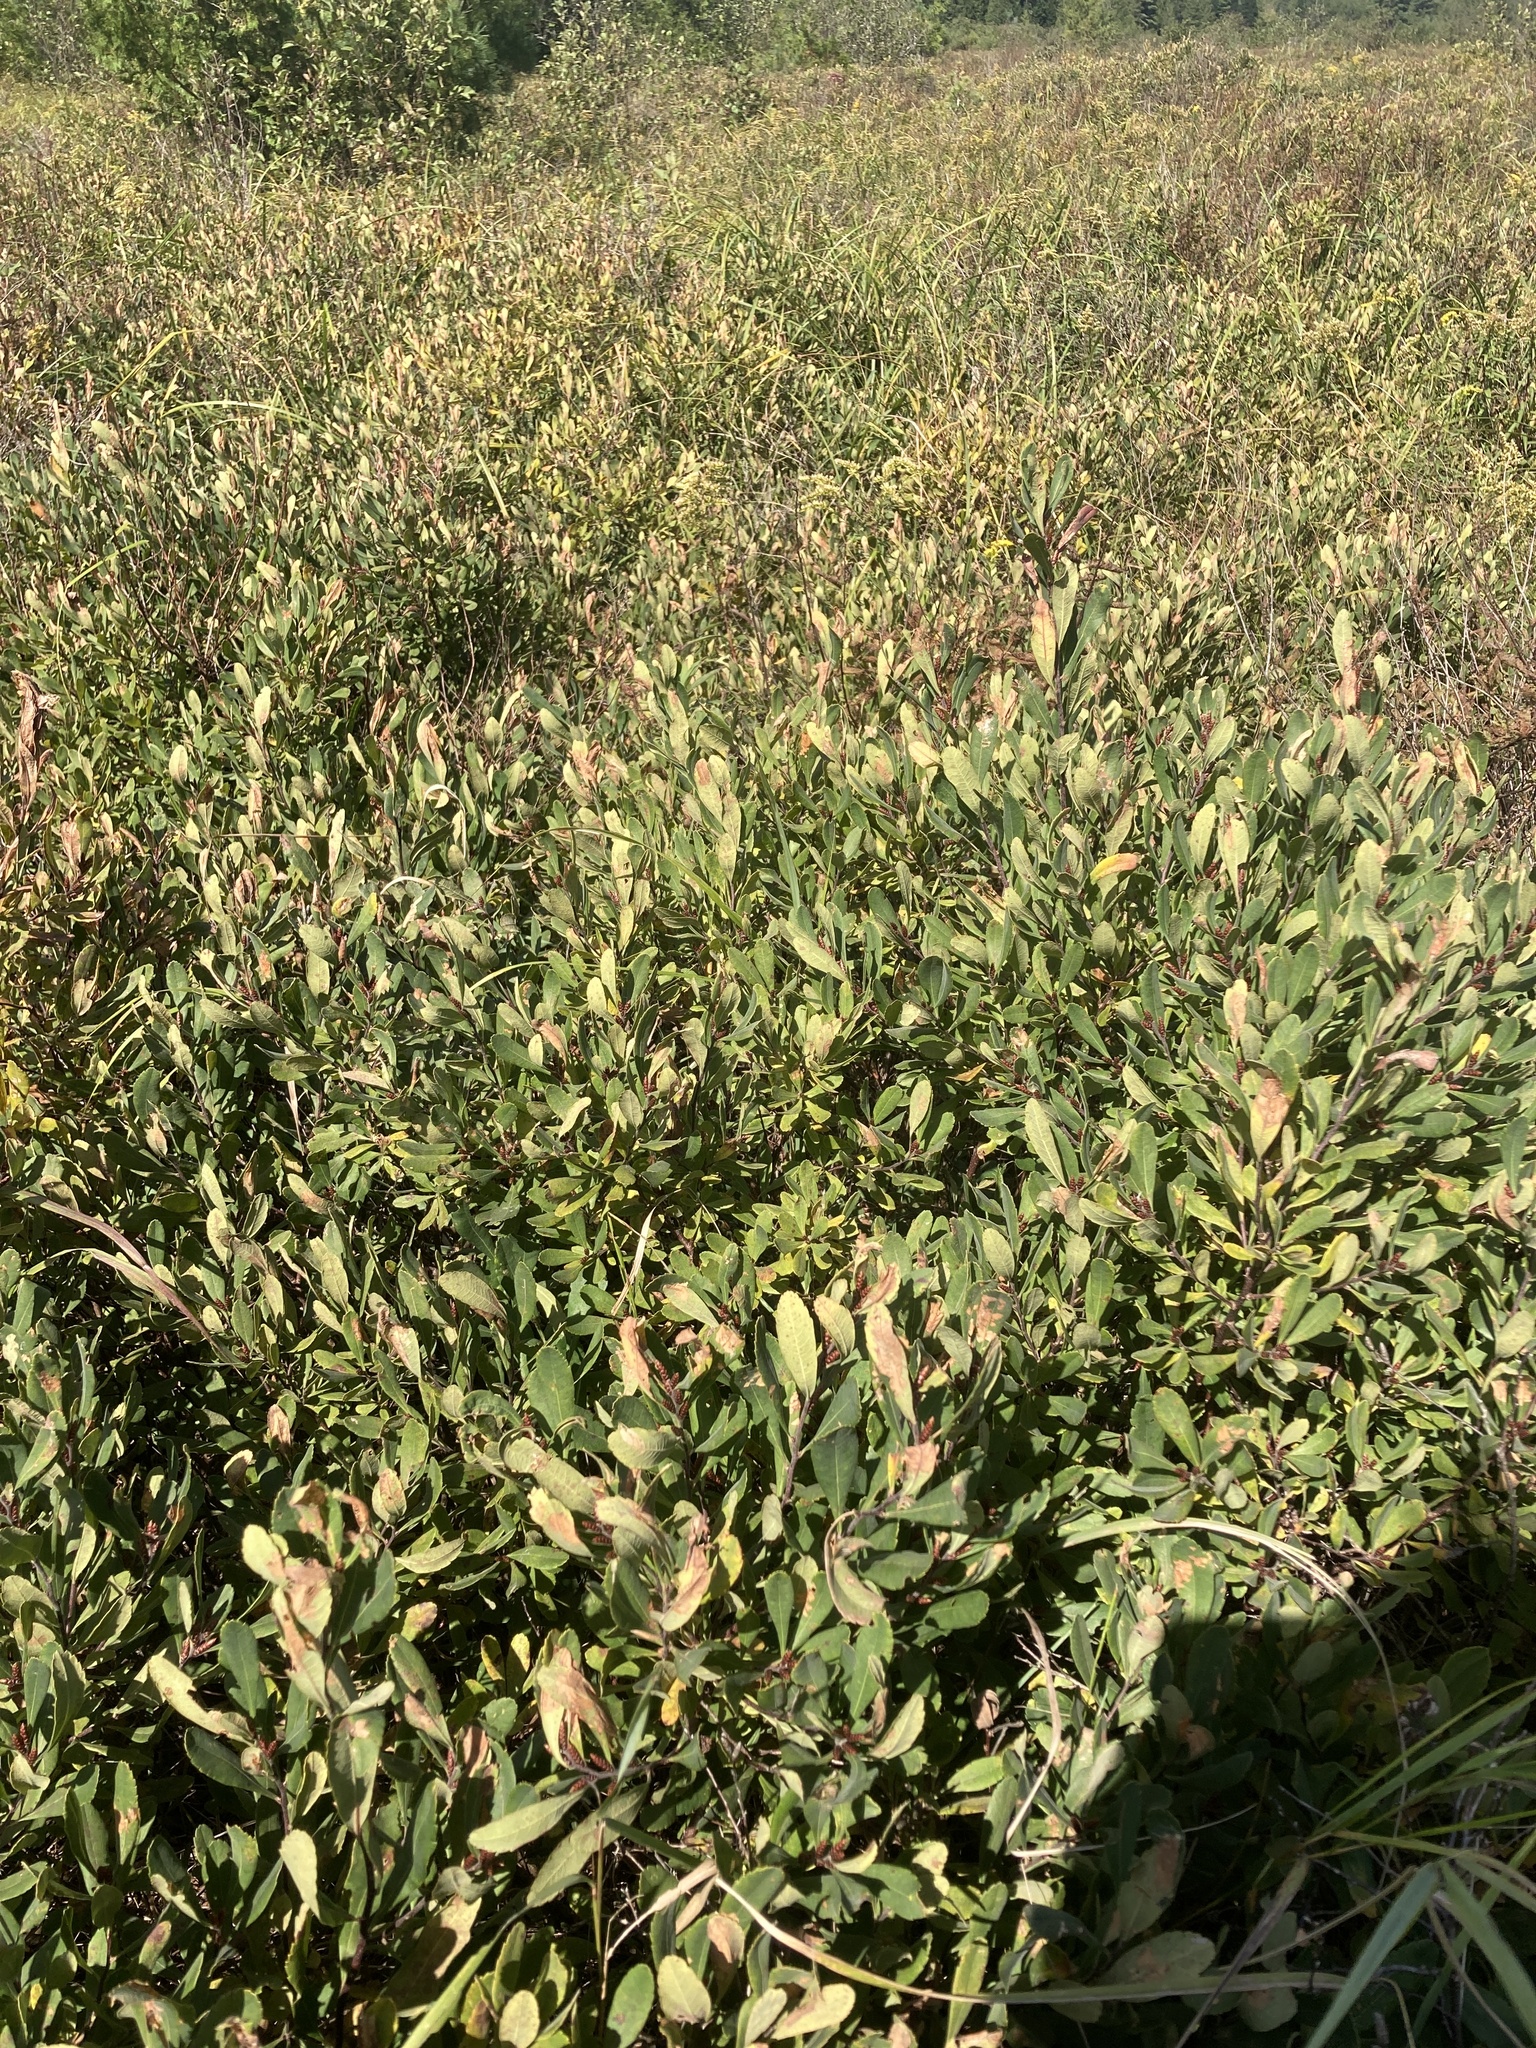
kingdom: Plantae
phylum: Tracheophyta
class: Magnoliopsida
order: Fagales
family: Myricaceae
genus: Myrica
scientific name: Myrica gale
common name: Sweet gale
